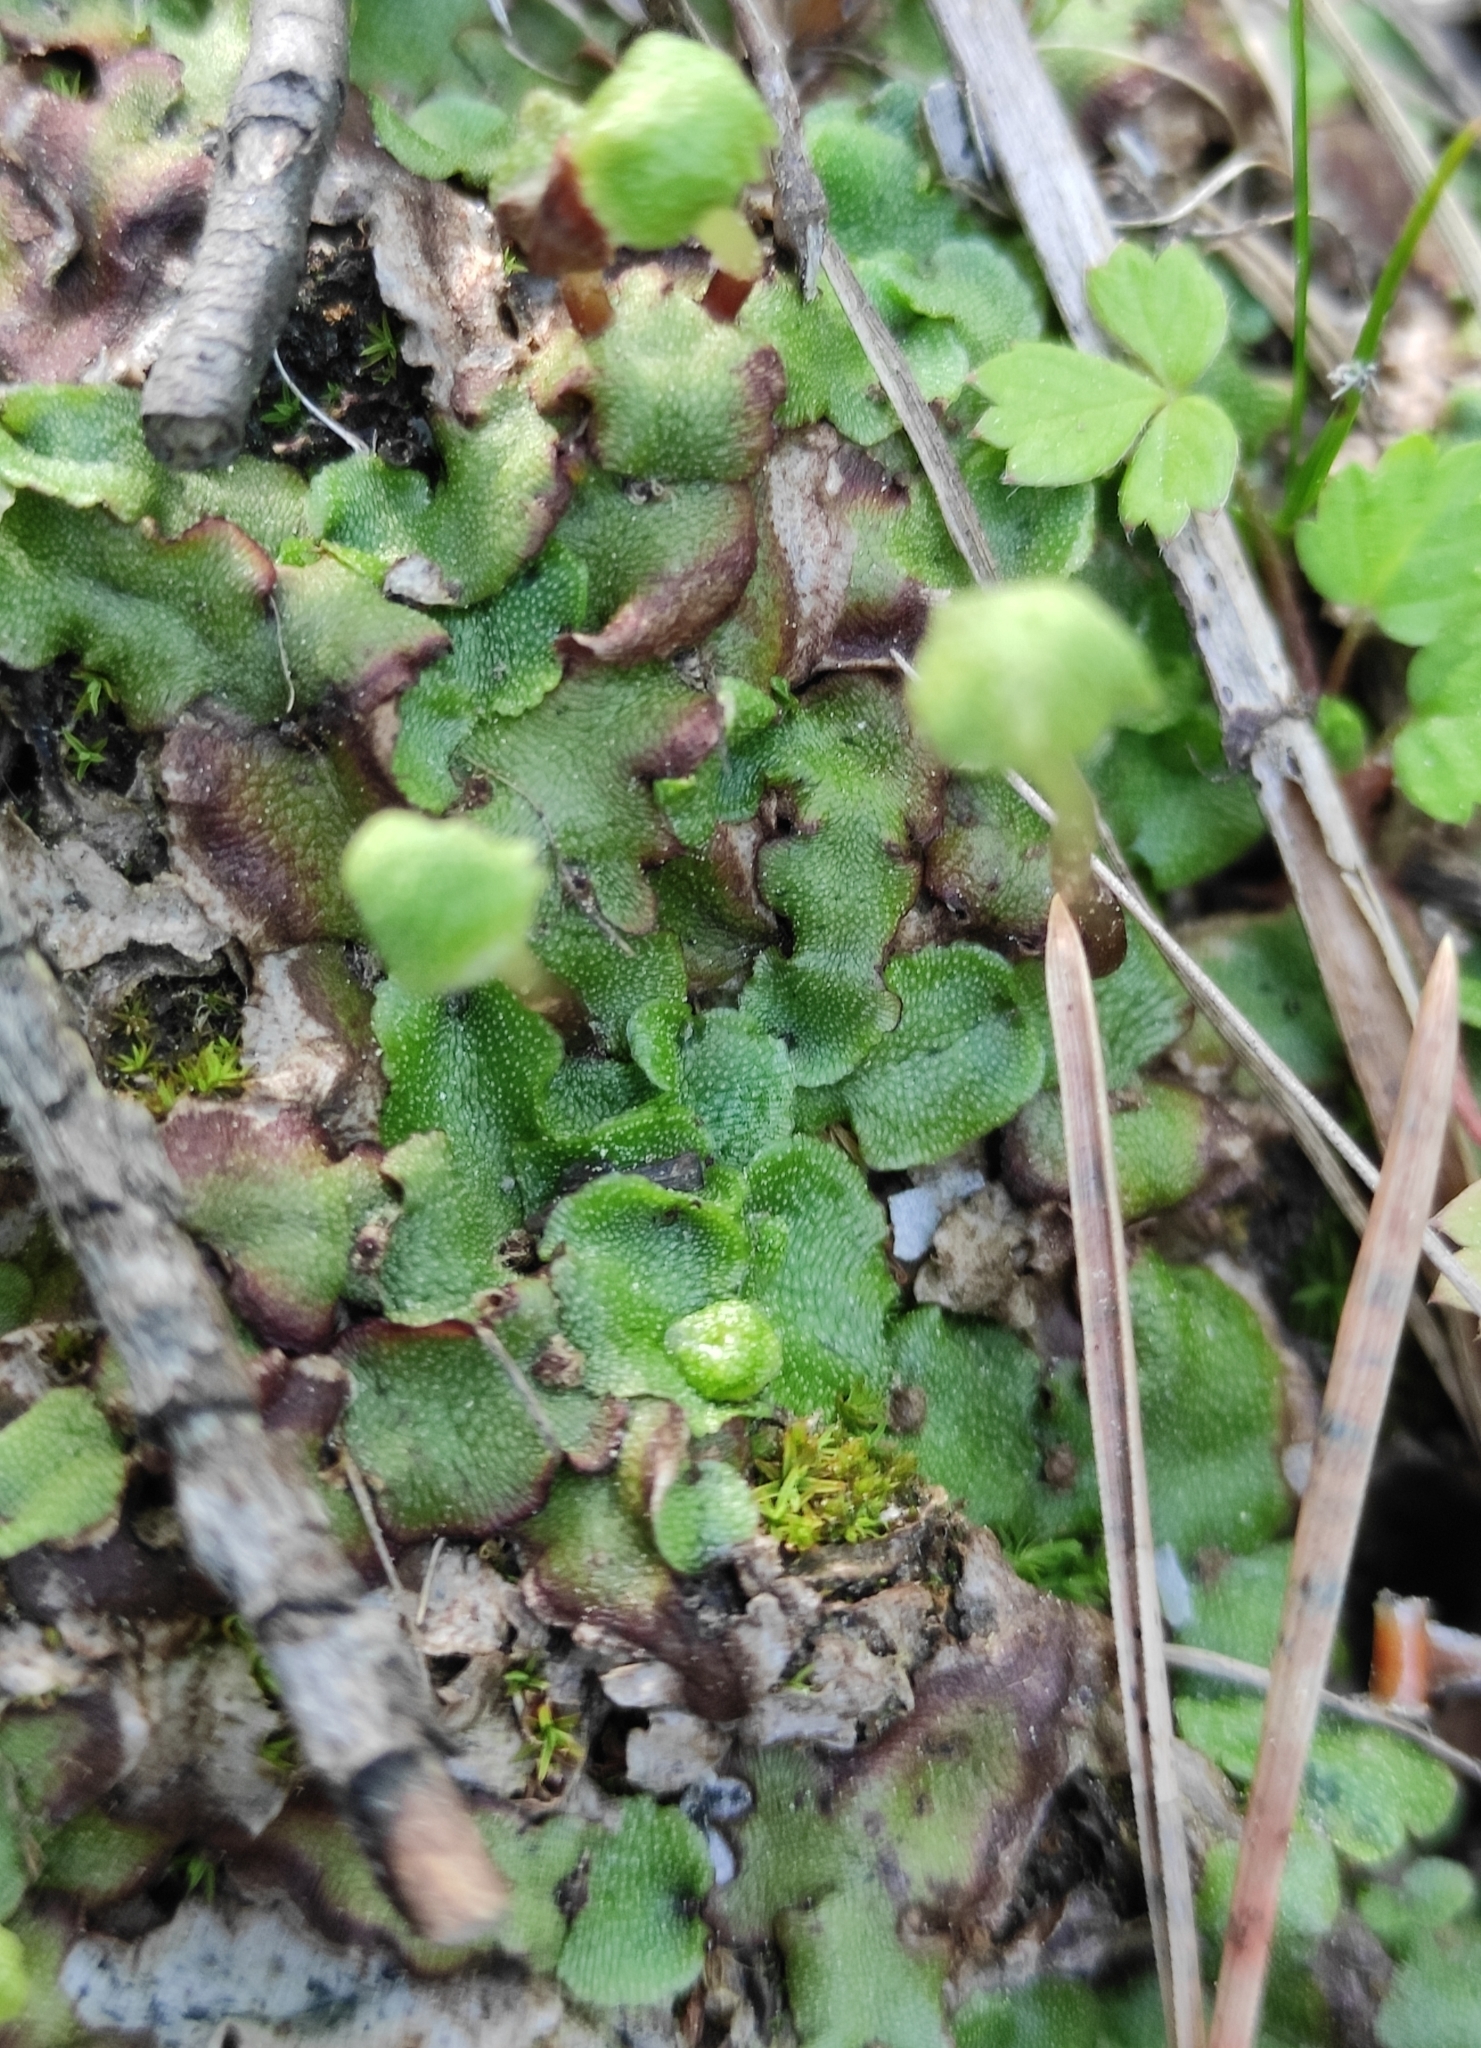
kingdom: Plantae
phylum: Marchantiophyta
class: Marchantiopsida
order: Marchantiales
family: Marchantiaceae
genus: Marchantia
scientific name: Marchantia quadrata
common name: Narrow mushroom-headed liverwort
